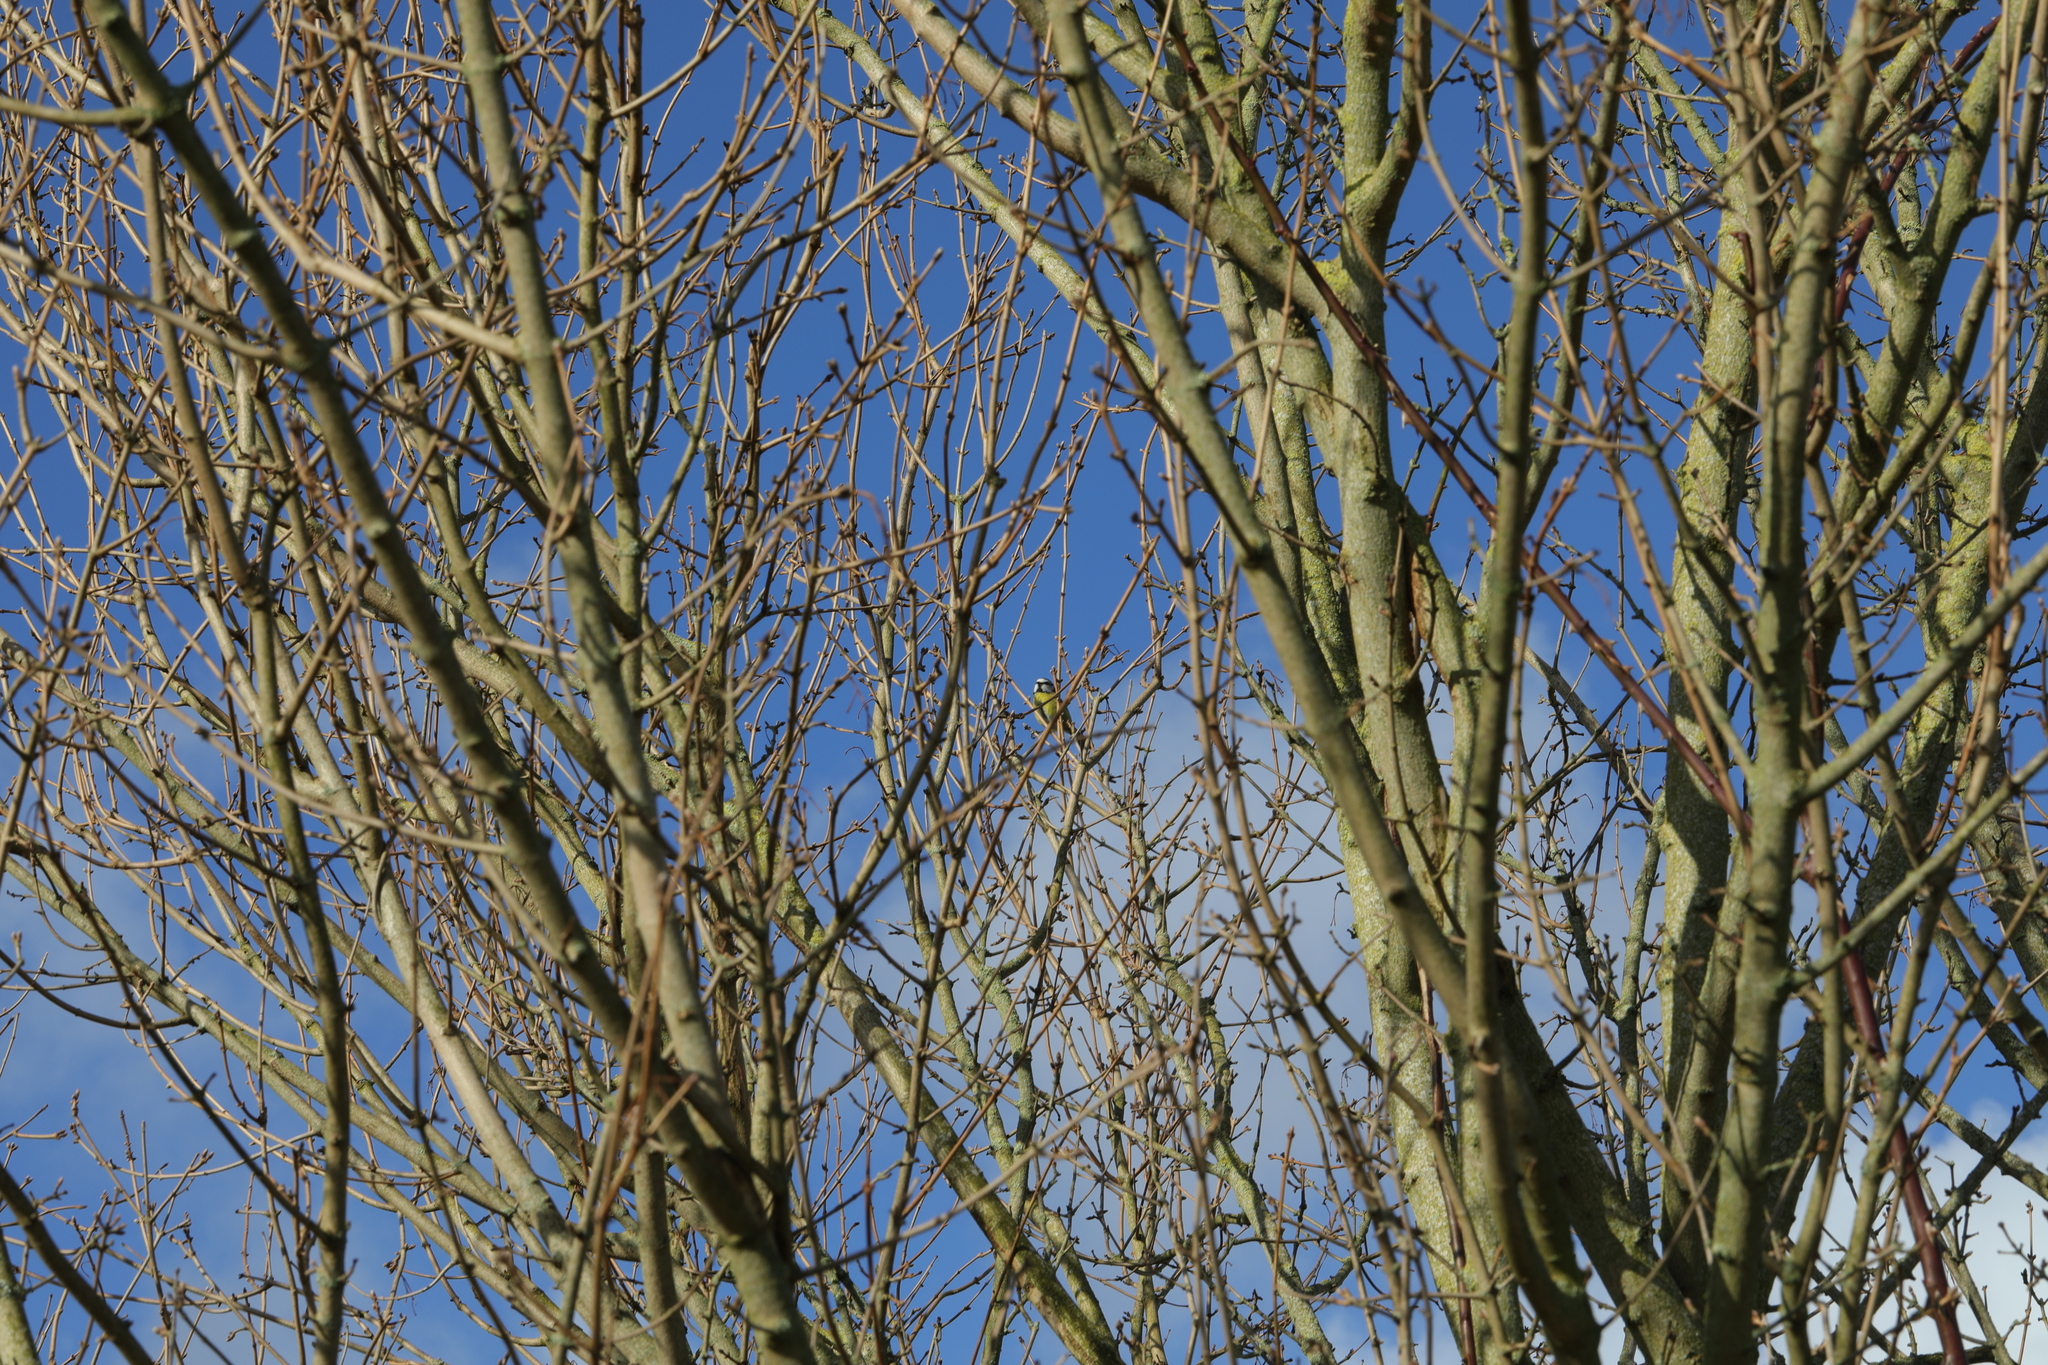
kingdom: Animalia
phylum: Chordata
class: Aves
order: Passeriformes
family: Paridae
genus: Cyanistes
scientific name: Cyanistes caeruleus
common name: Eurasian blue tit
